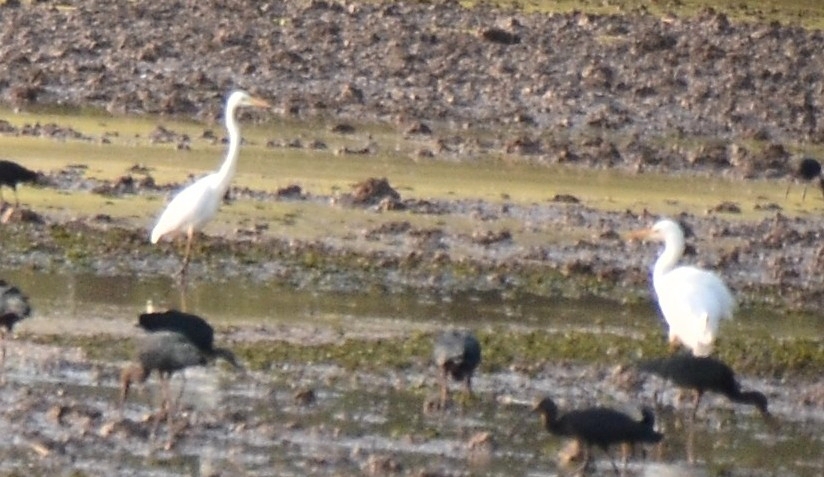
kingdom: Animalia
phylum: Chordata
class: Aves
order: Pelecaniformes
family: Ardeidae
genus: Ardea
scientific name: Ardea alba
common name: Great egret
